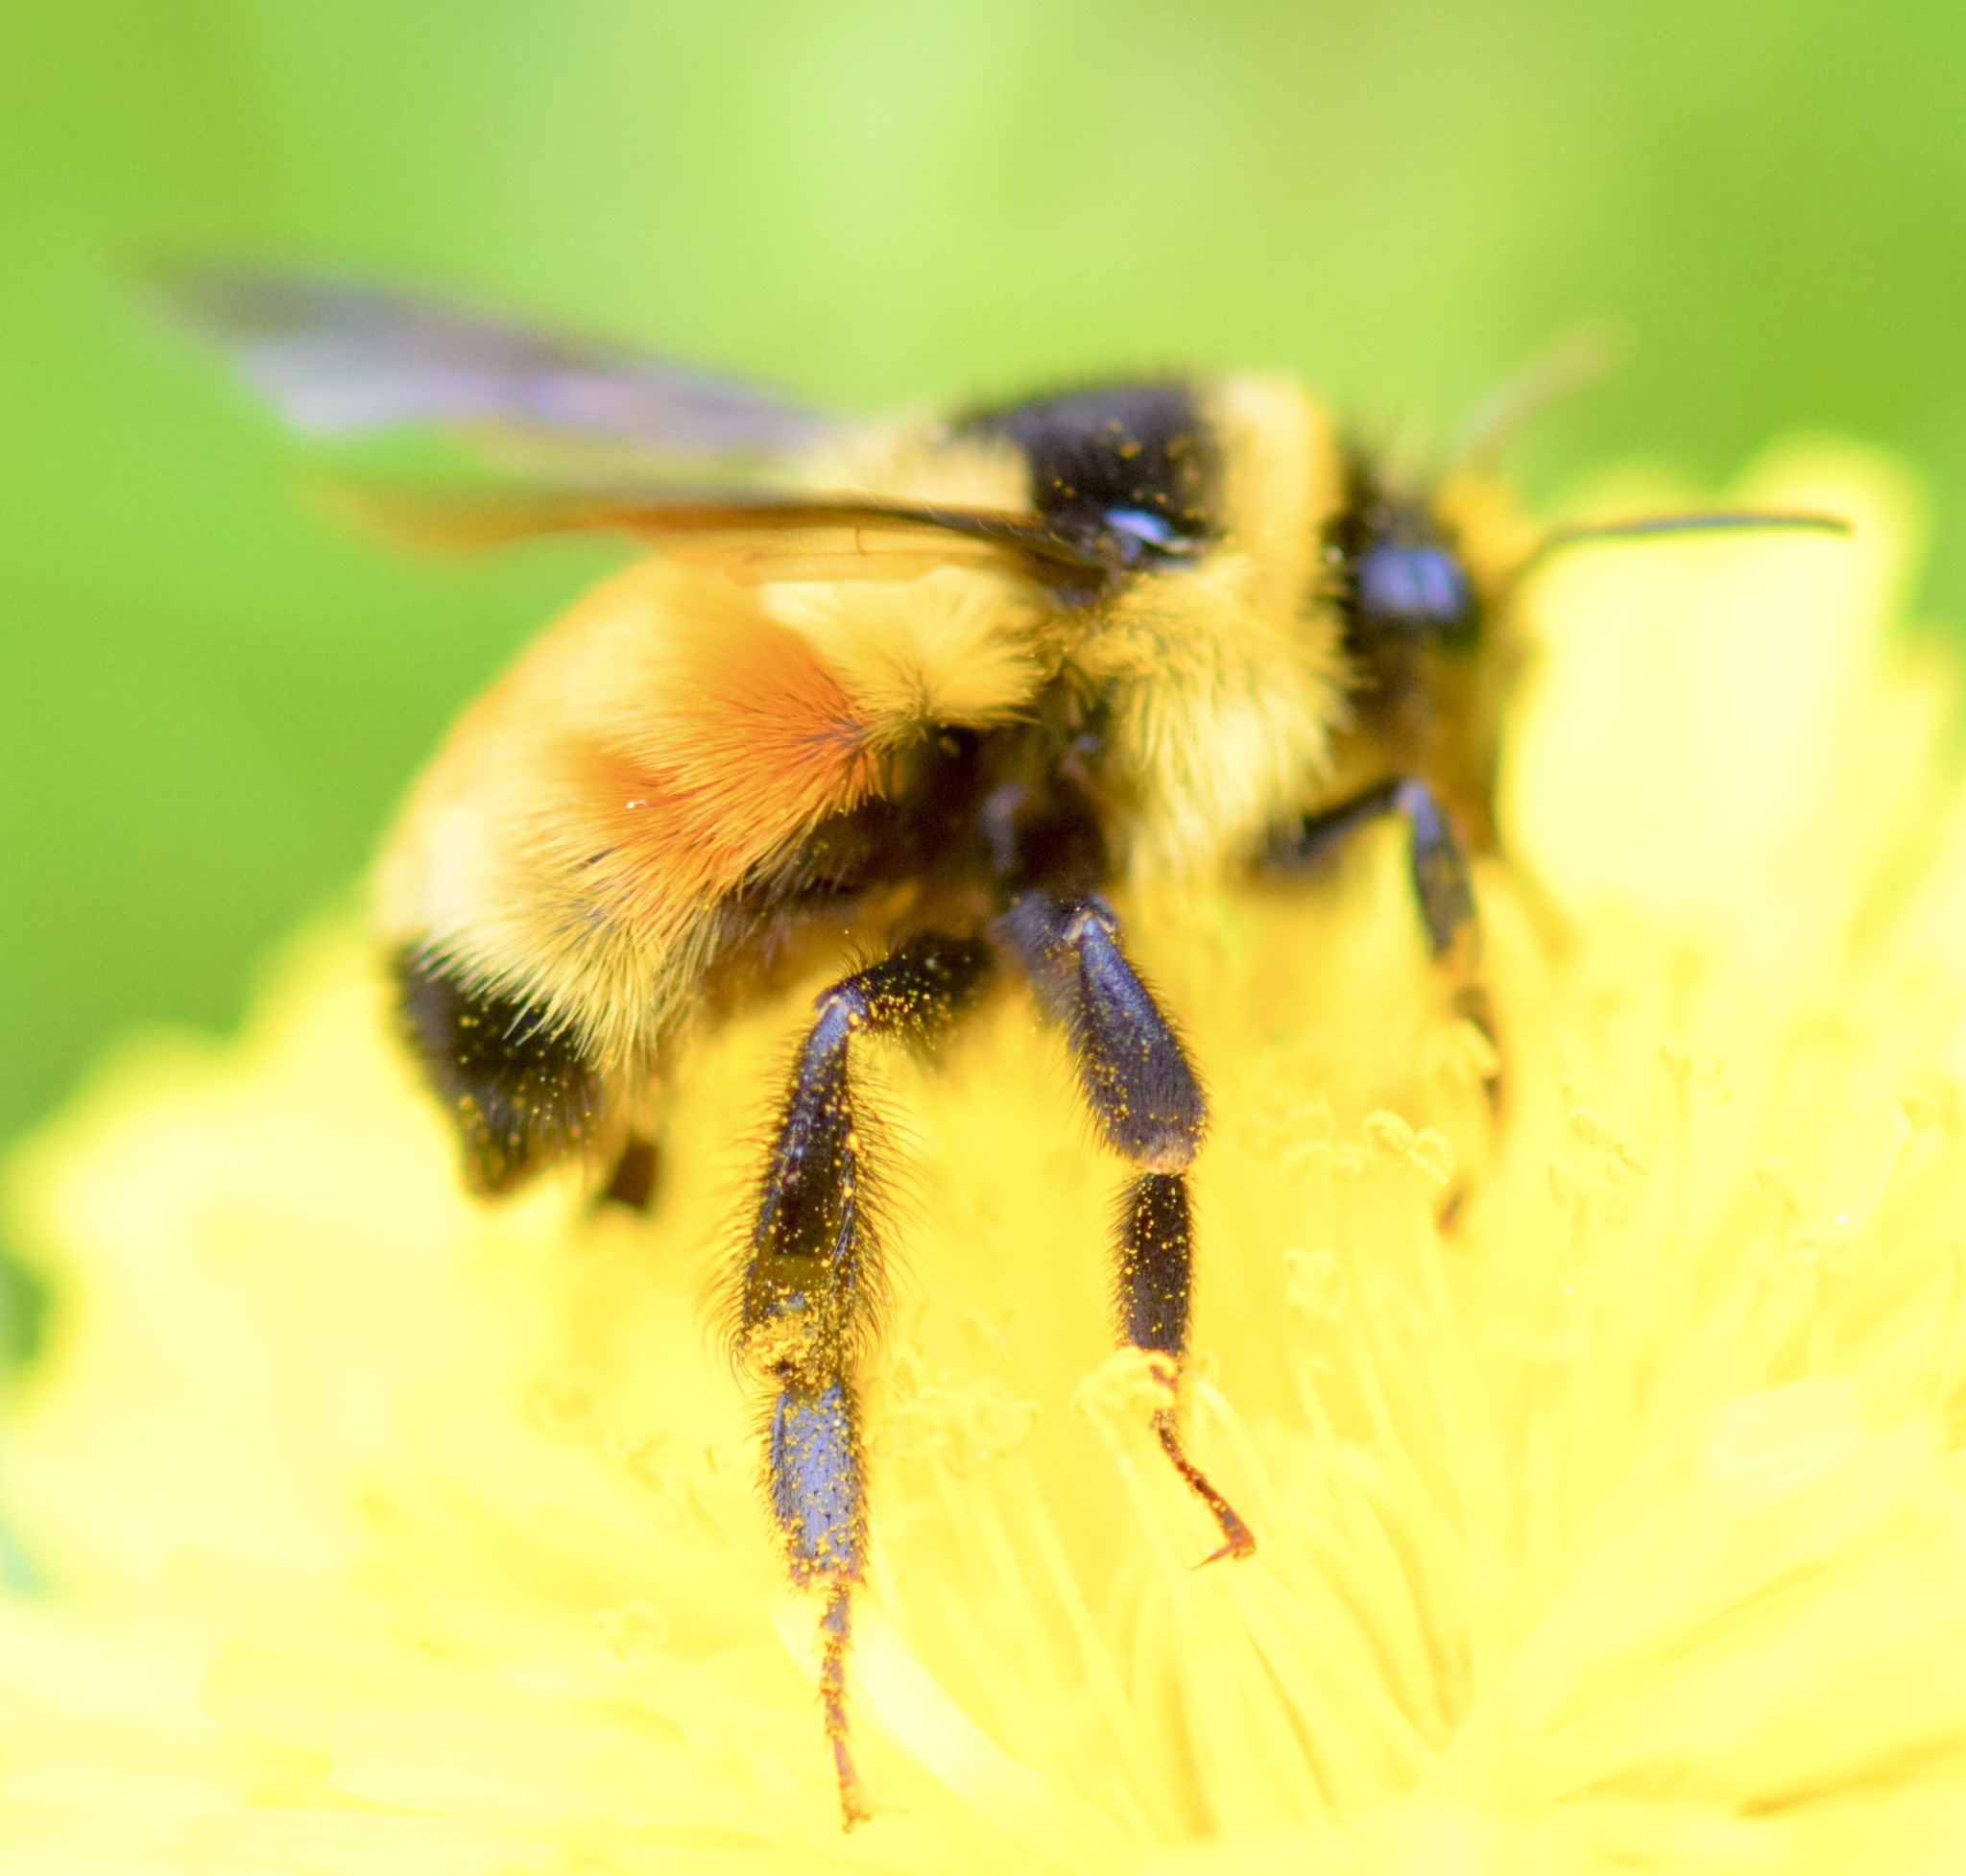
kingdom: Animalia
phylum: Arthropoda
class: Insecta
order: Hymenoptera
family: Apidae
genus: Bombus
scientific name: Bombus ternarius
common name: Tri-colored bumble bee
